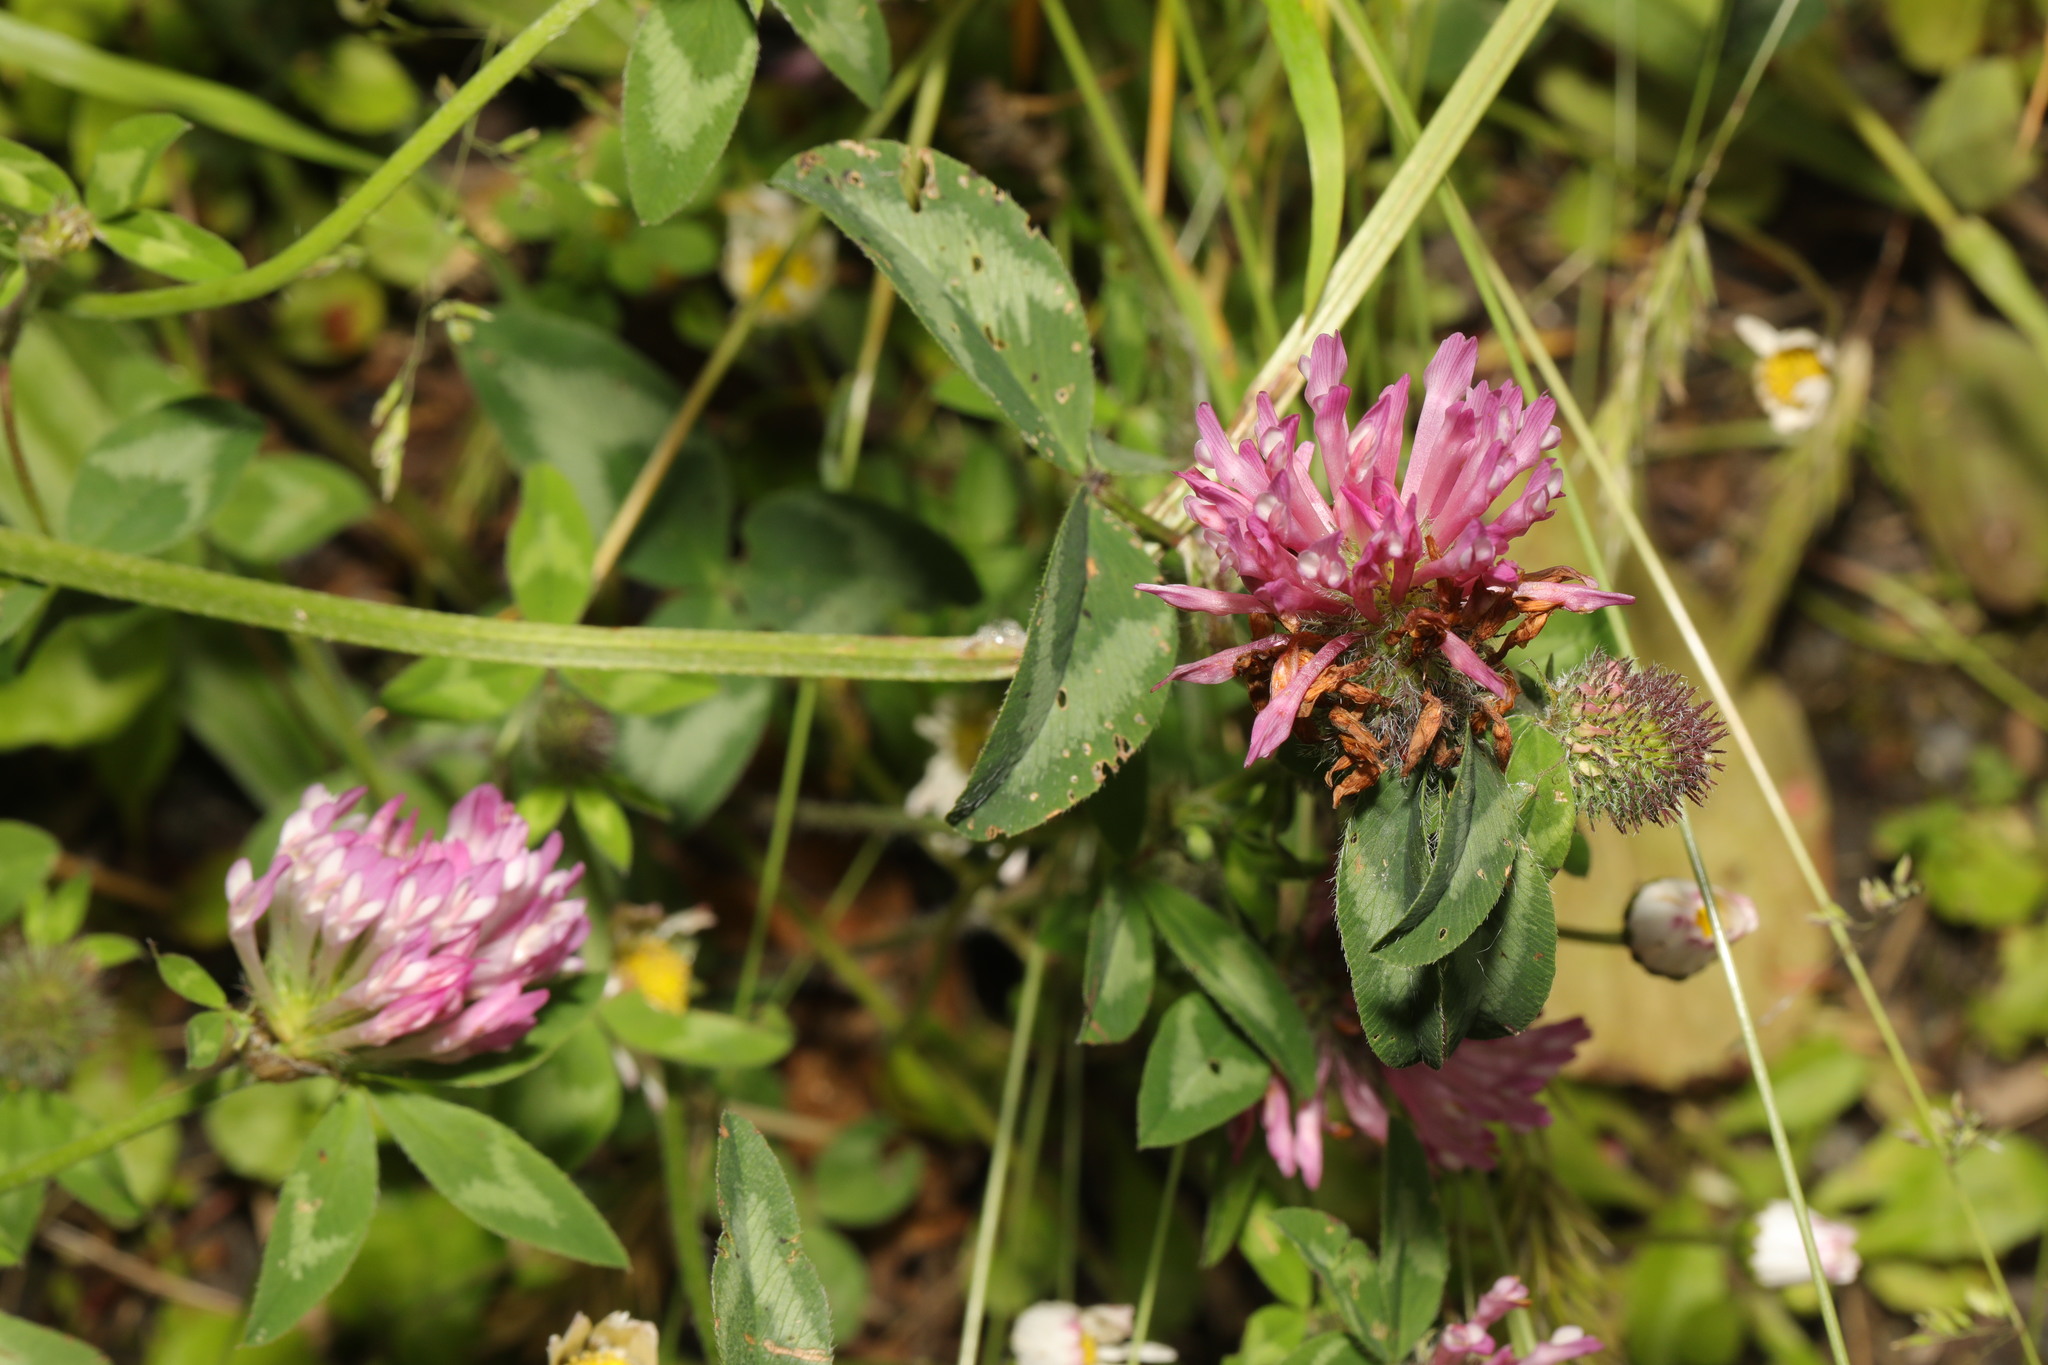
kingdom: Plantae
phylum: Tracheophyta
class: Magnoliopsida
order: Fabales
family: Fabaceae
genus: Trifolium
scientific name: Trifolium pratense
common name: Red clover
